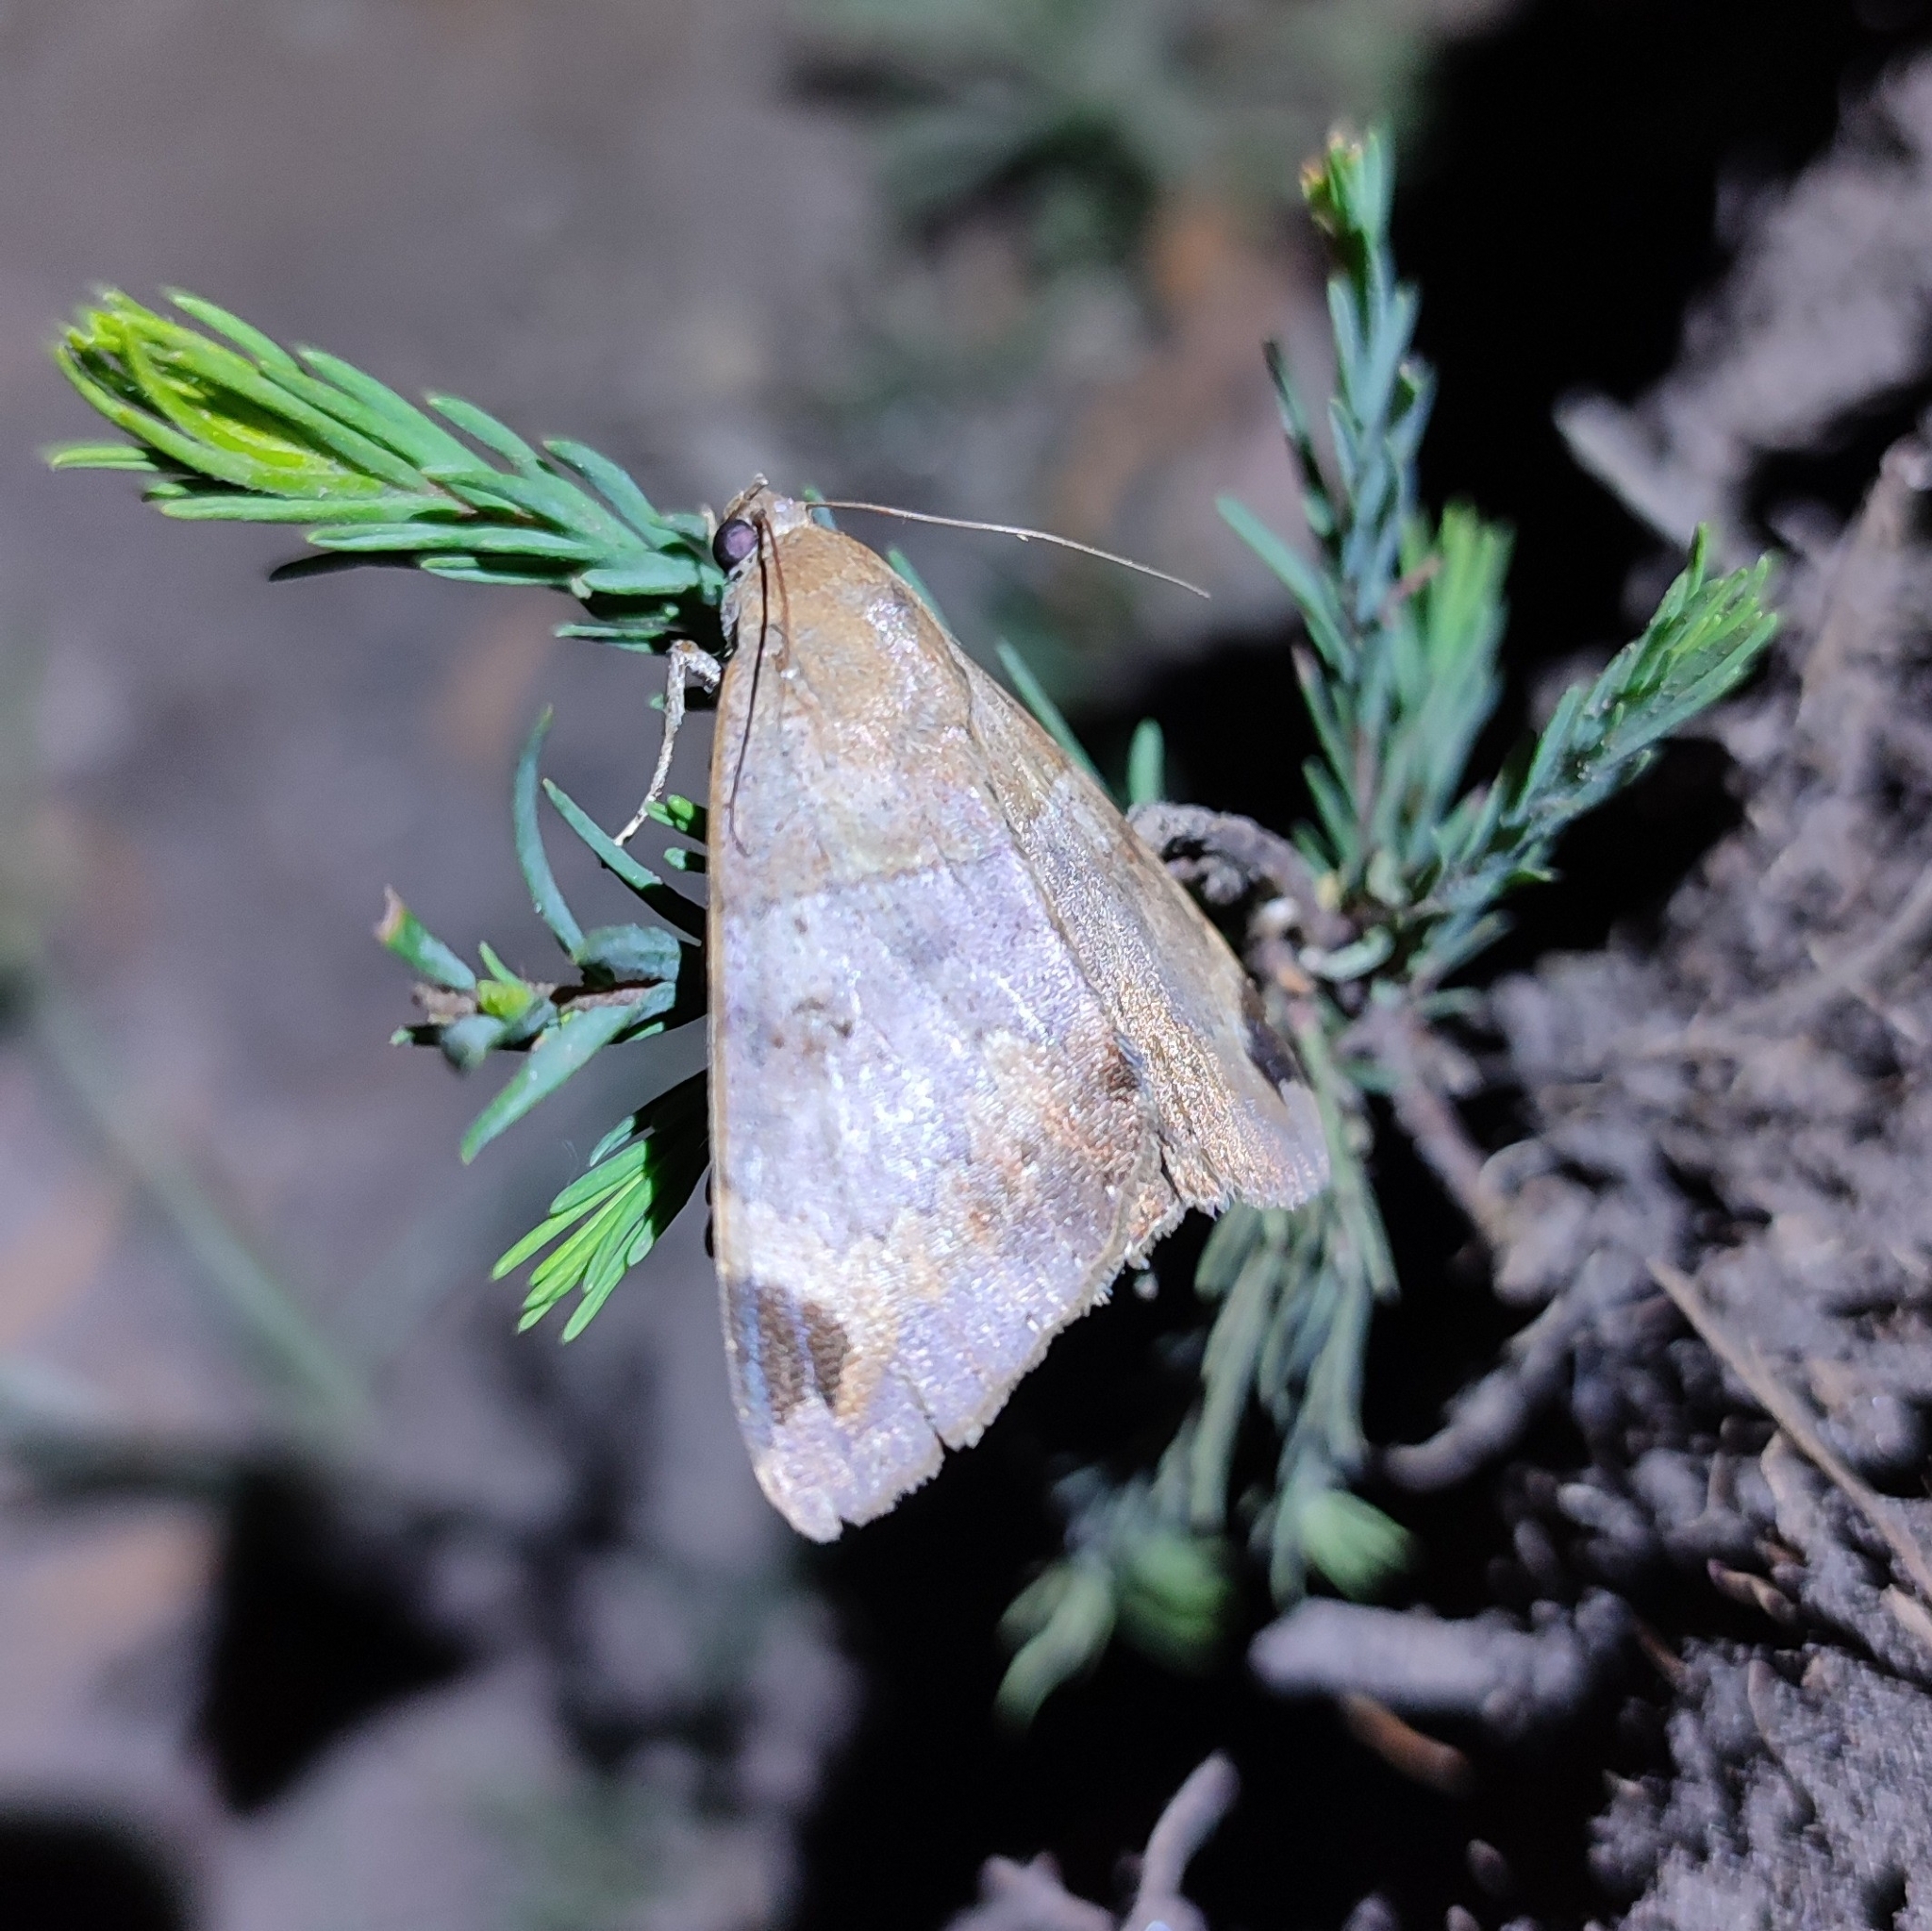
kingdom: Animalia
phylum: Arthropoda
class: Insecta
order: Lepidoptera
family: Erebidae
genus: Achaea
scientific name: Achaea lienardi
